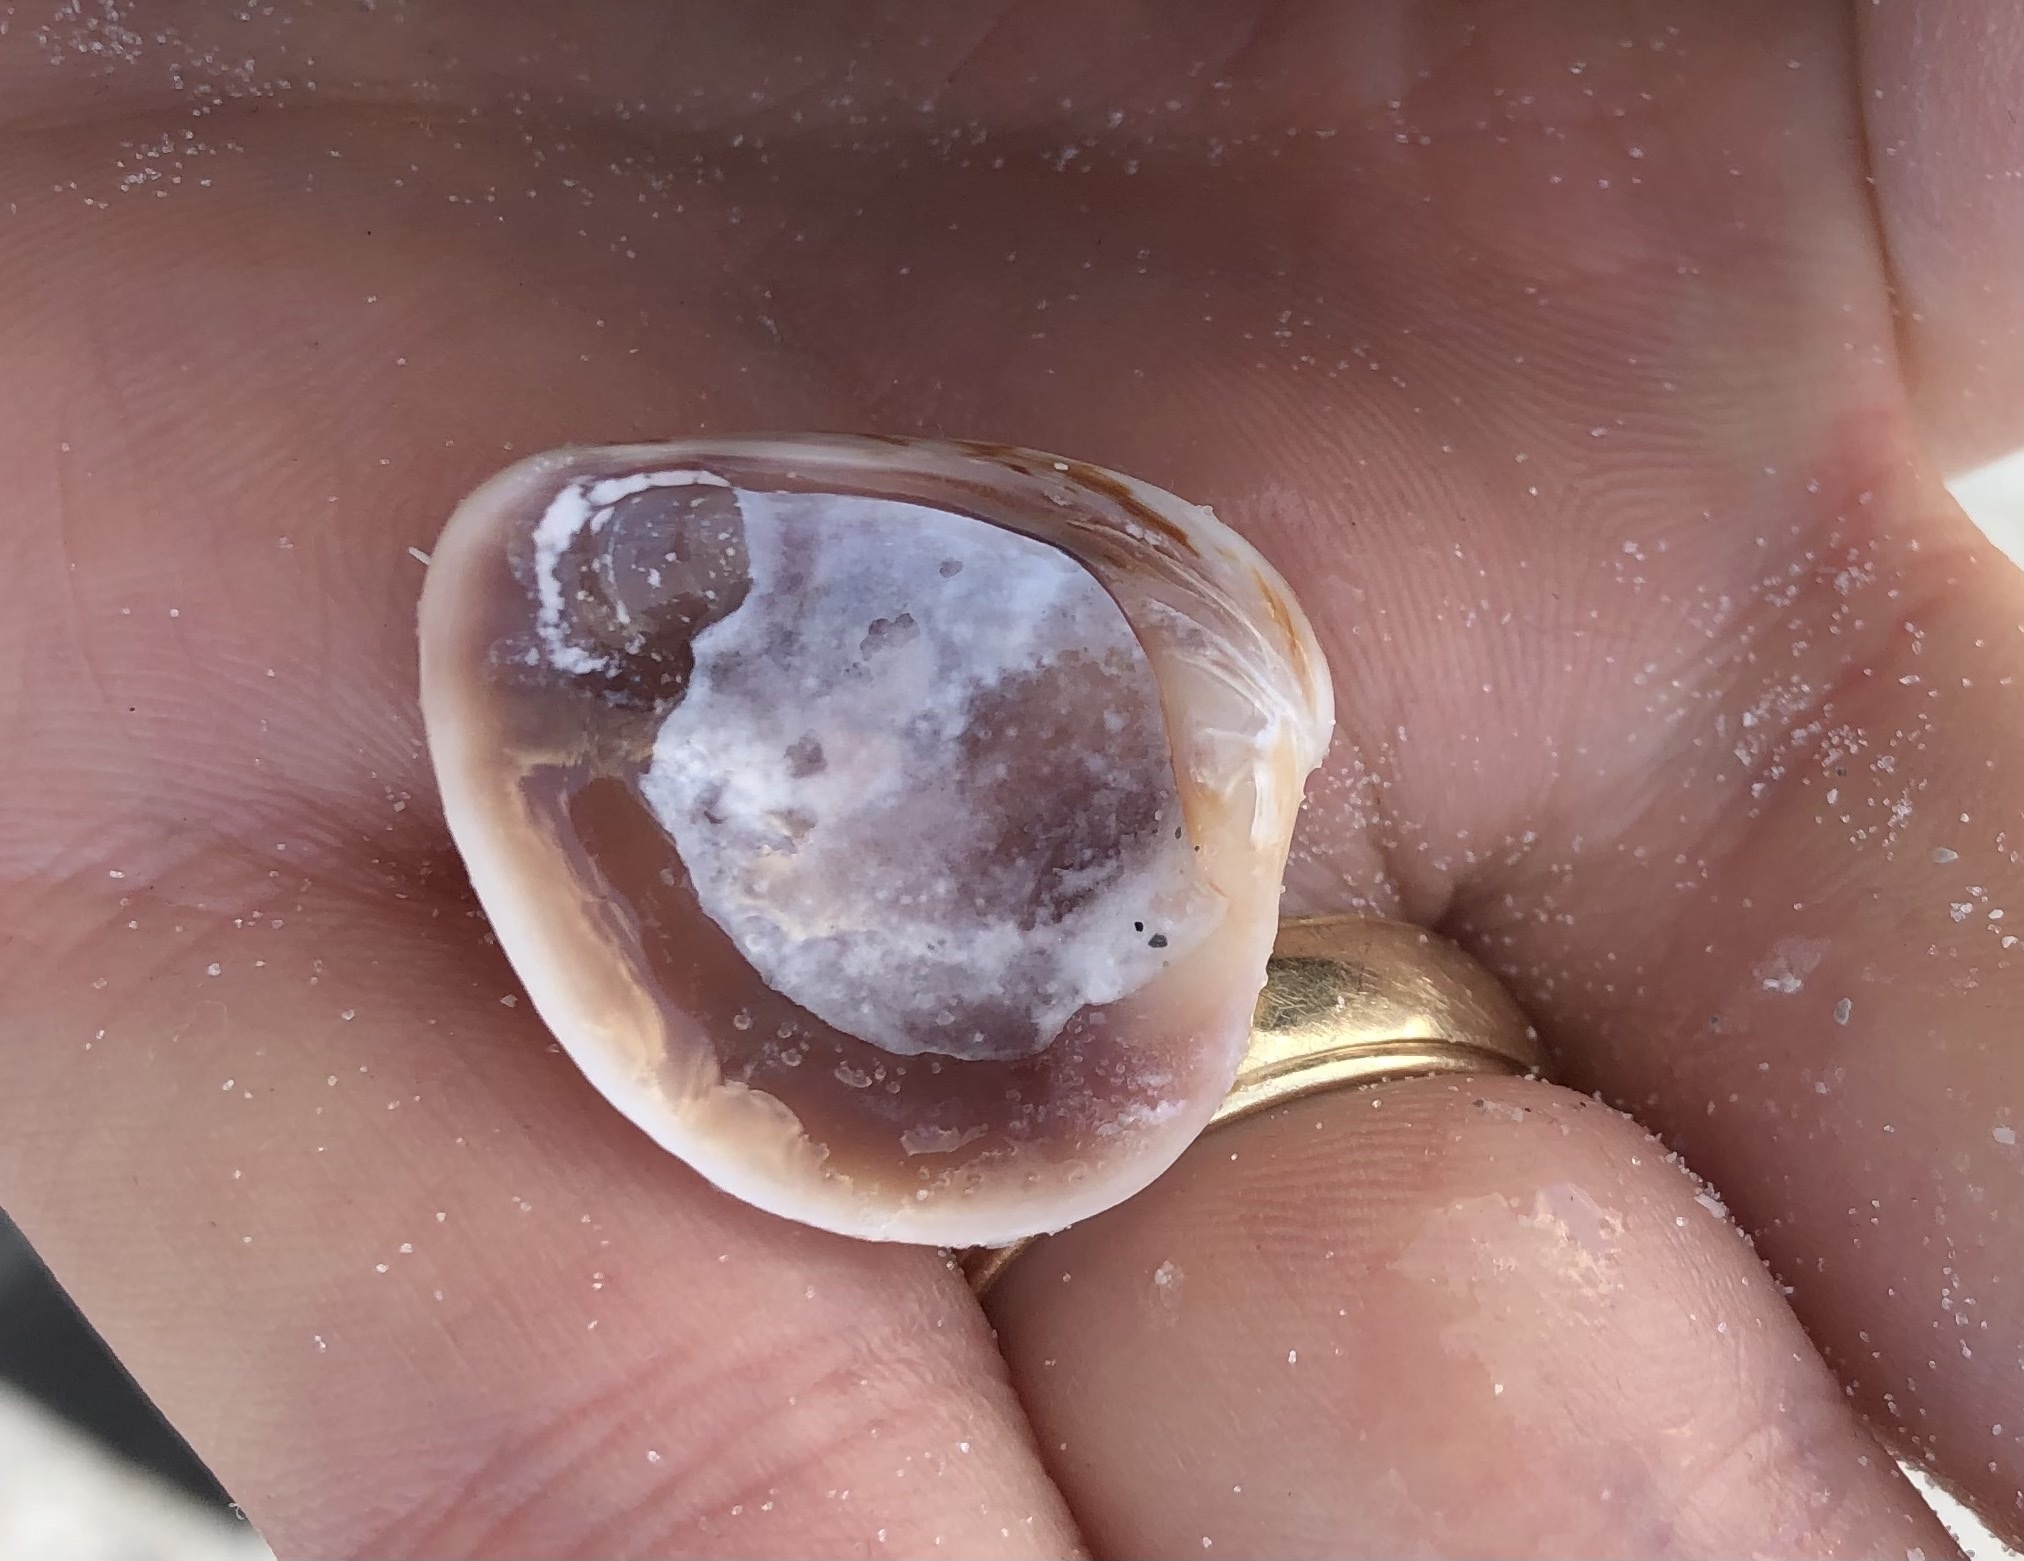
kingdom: Animalia
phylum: Mollusca
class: Bivalvia
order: Venerida
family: Veneridae
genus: Chione
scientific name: Chione elevata
